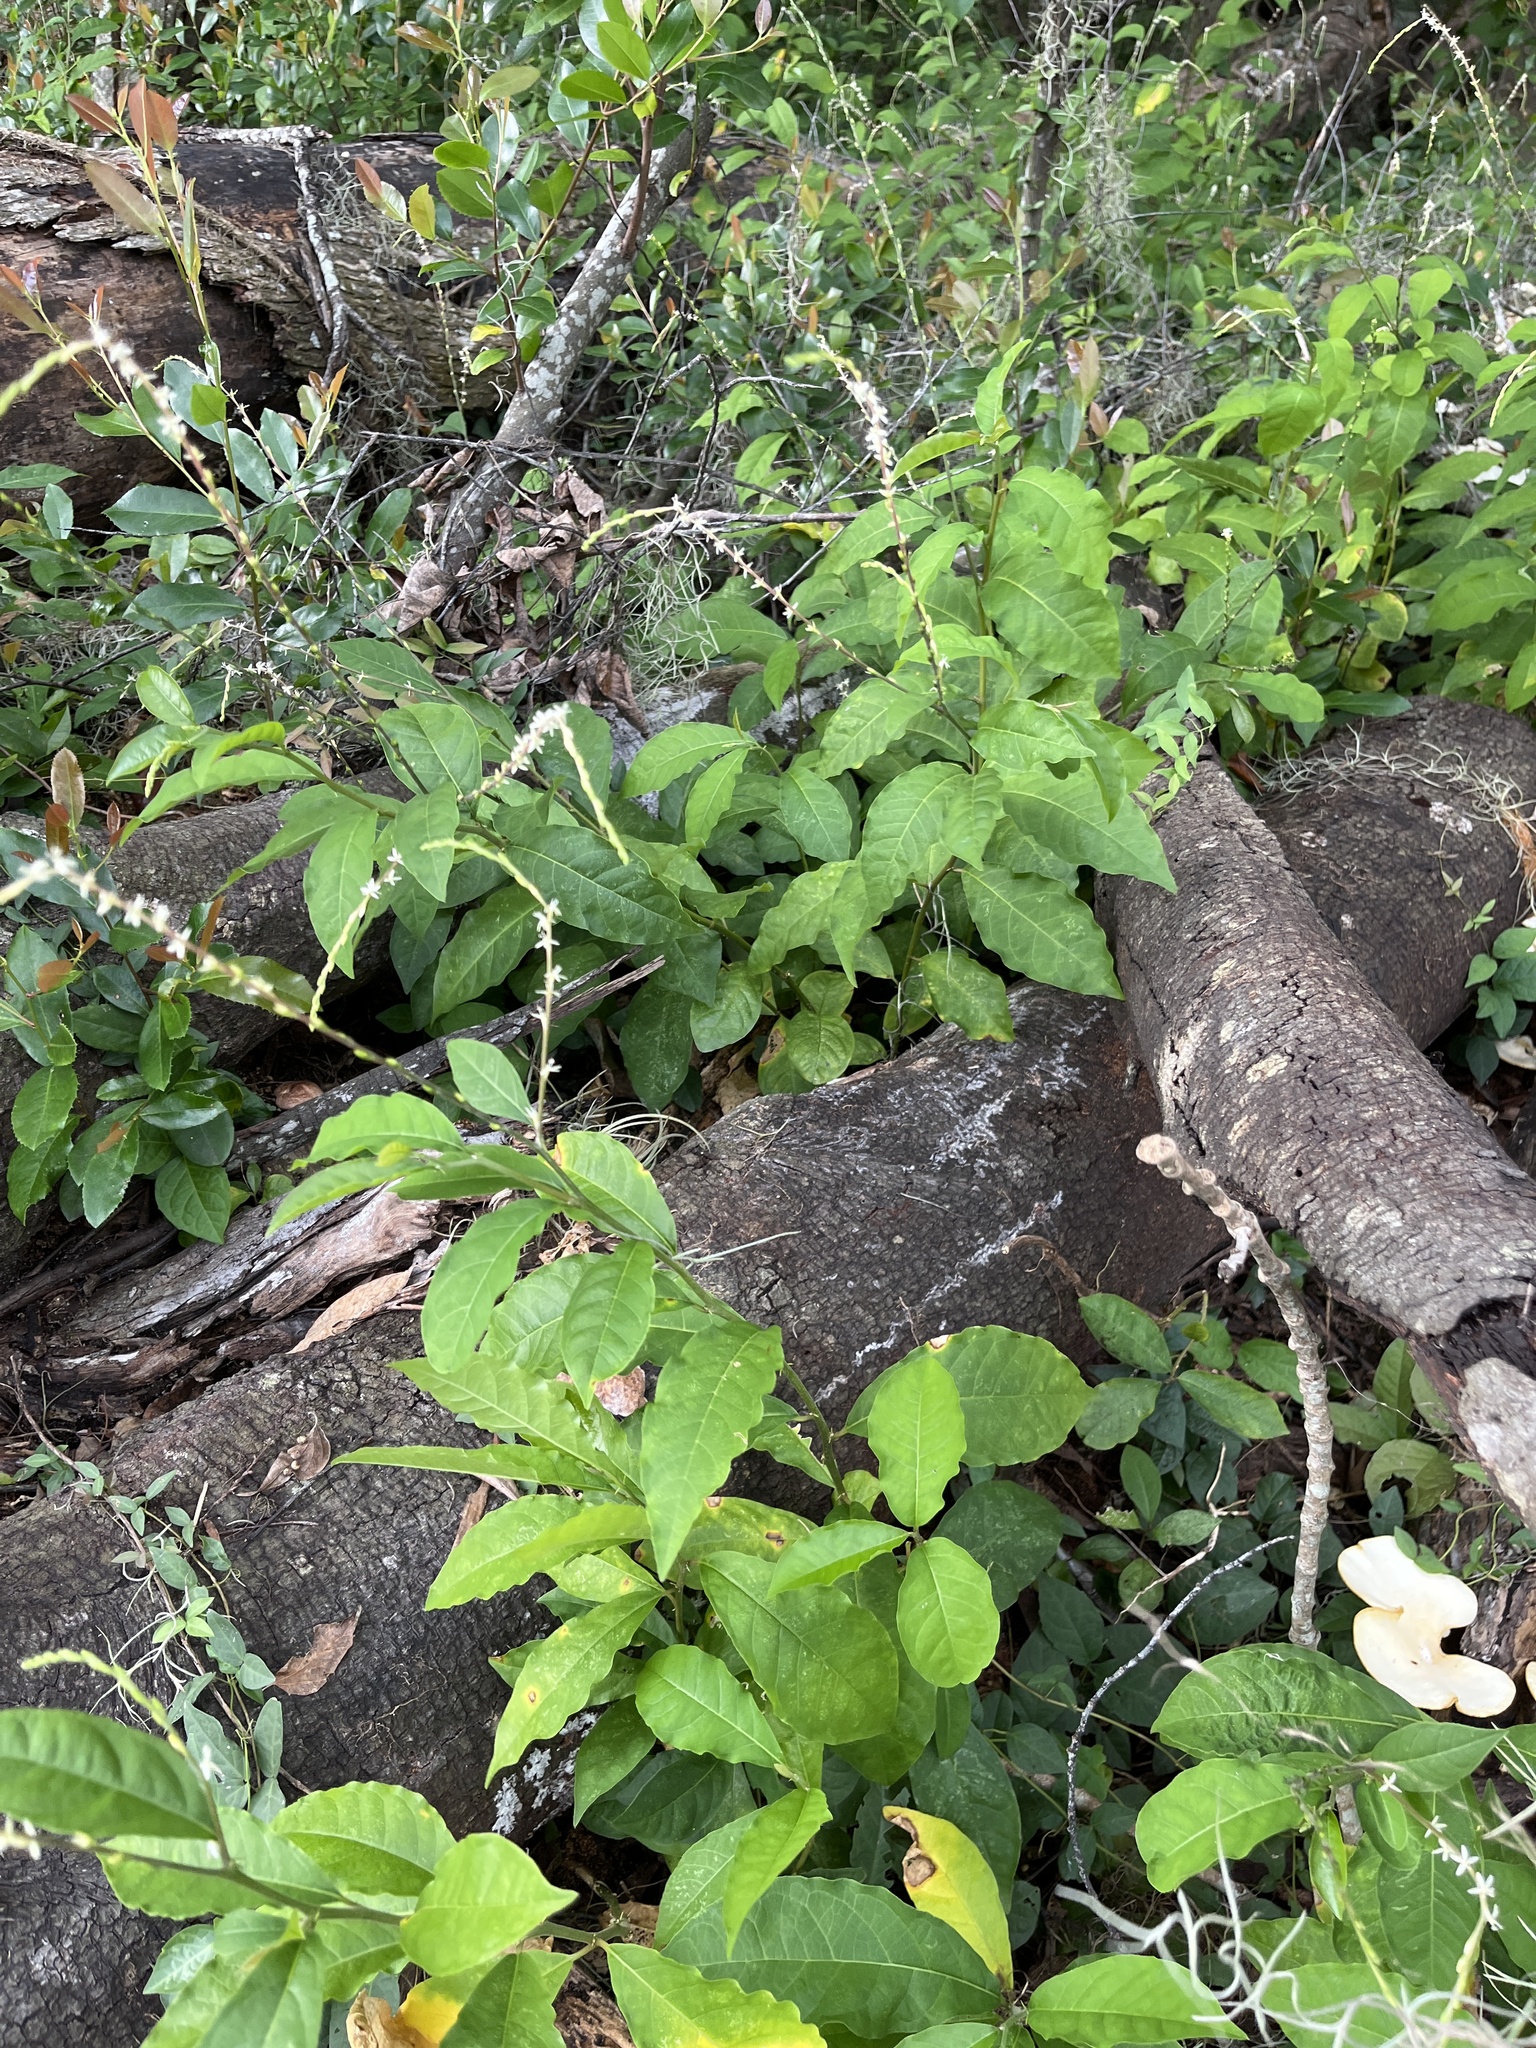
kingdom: Plantae
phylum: Tracheophyta
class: Magnoliopsida
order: Caryophyllales
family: Phytolaccaceae
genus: Petiveria
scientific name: Petiveria alliacea
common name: Garlicweed
